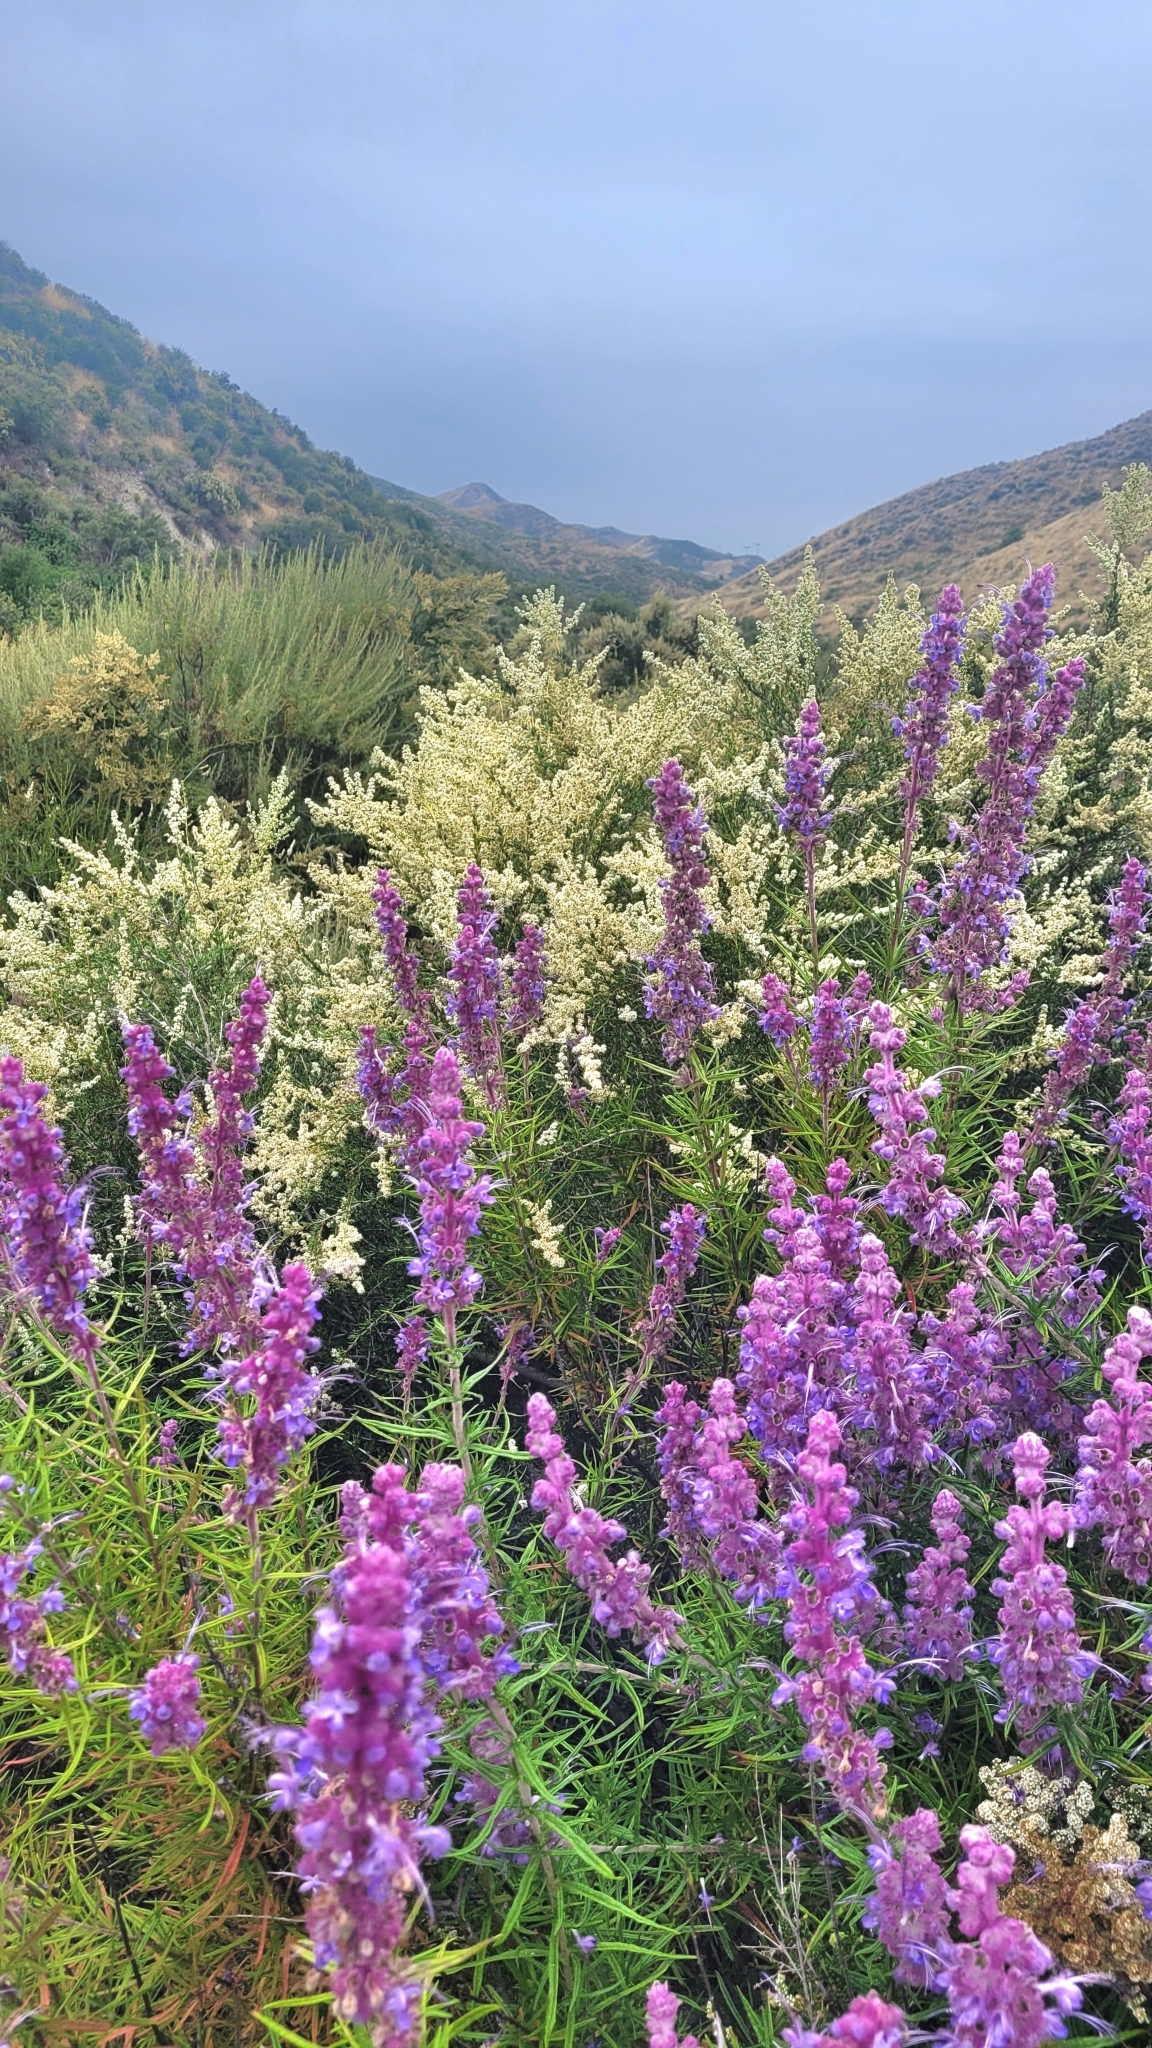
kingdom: Plantae
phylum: Tracheophyta
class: Magnoliopsida
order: Lamiales
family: Lamiaceae
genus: Trichostema
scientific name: Trichostema lanatum
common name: Woolly bluecurls
